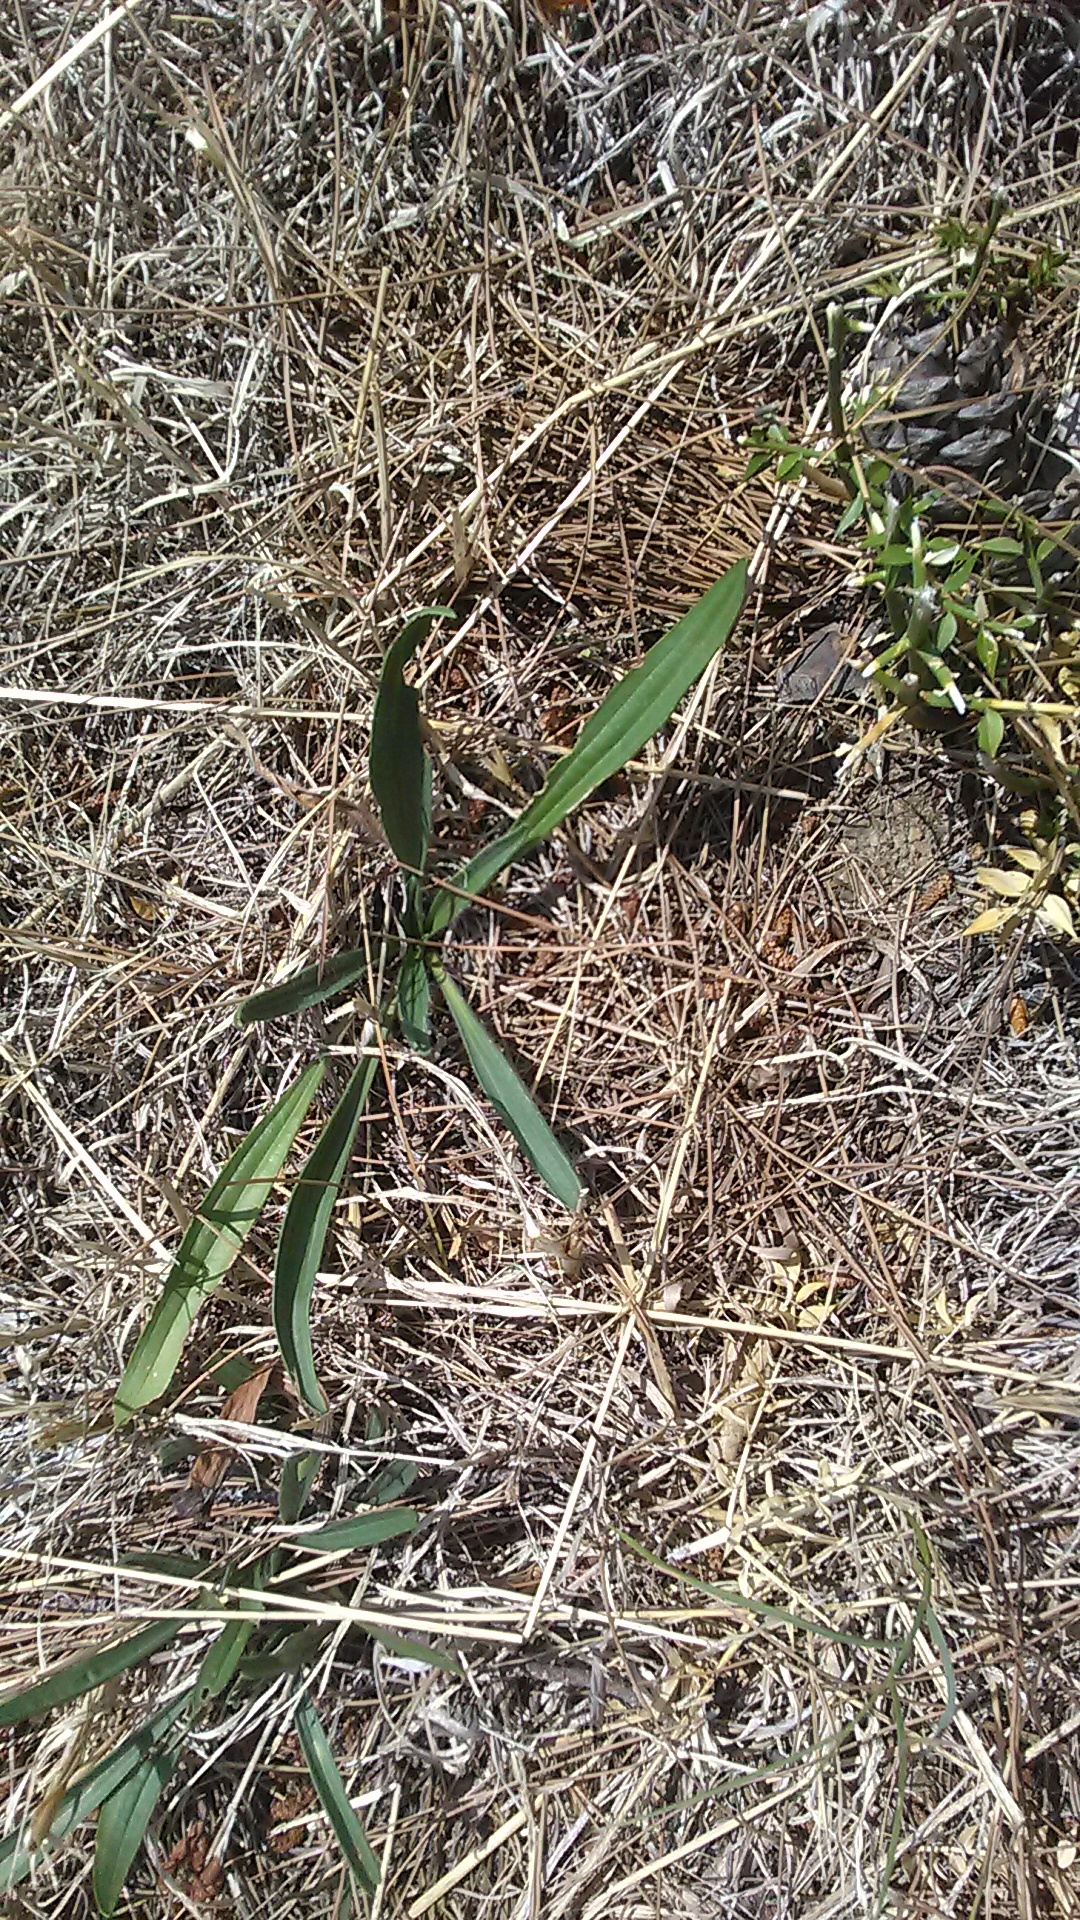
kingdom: Plantae
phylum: Tracheophyta
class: Magnoliopsida
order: Lamiales
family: Plantaginaceae
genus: Plantago
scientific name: Plantago lanceolata
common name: Ribwort plantain
